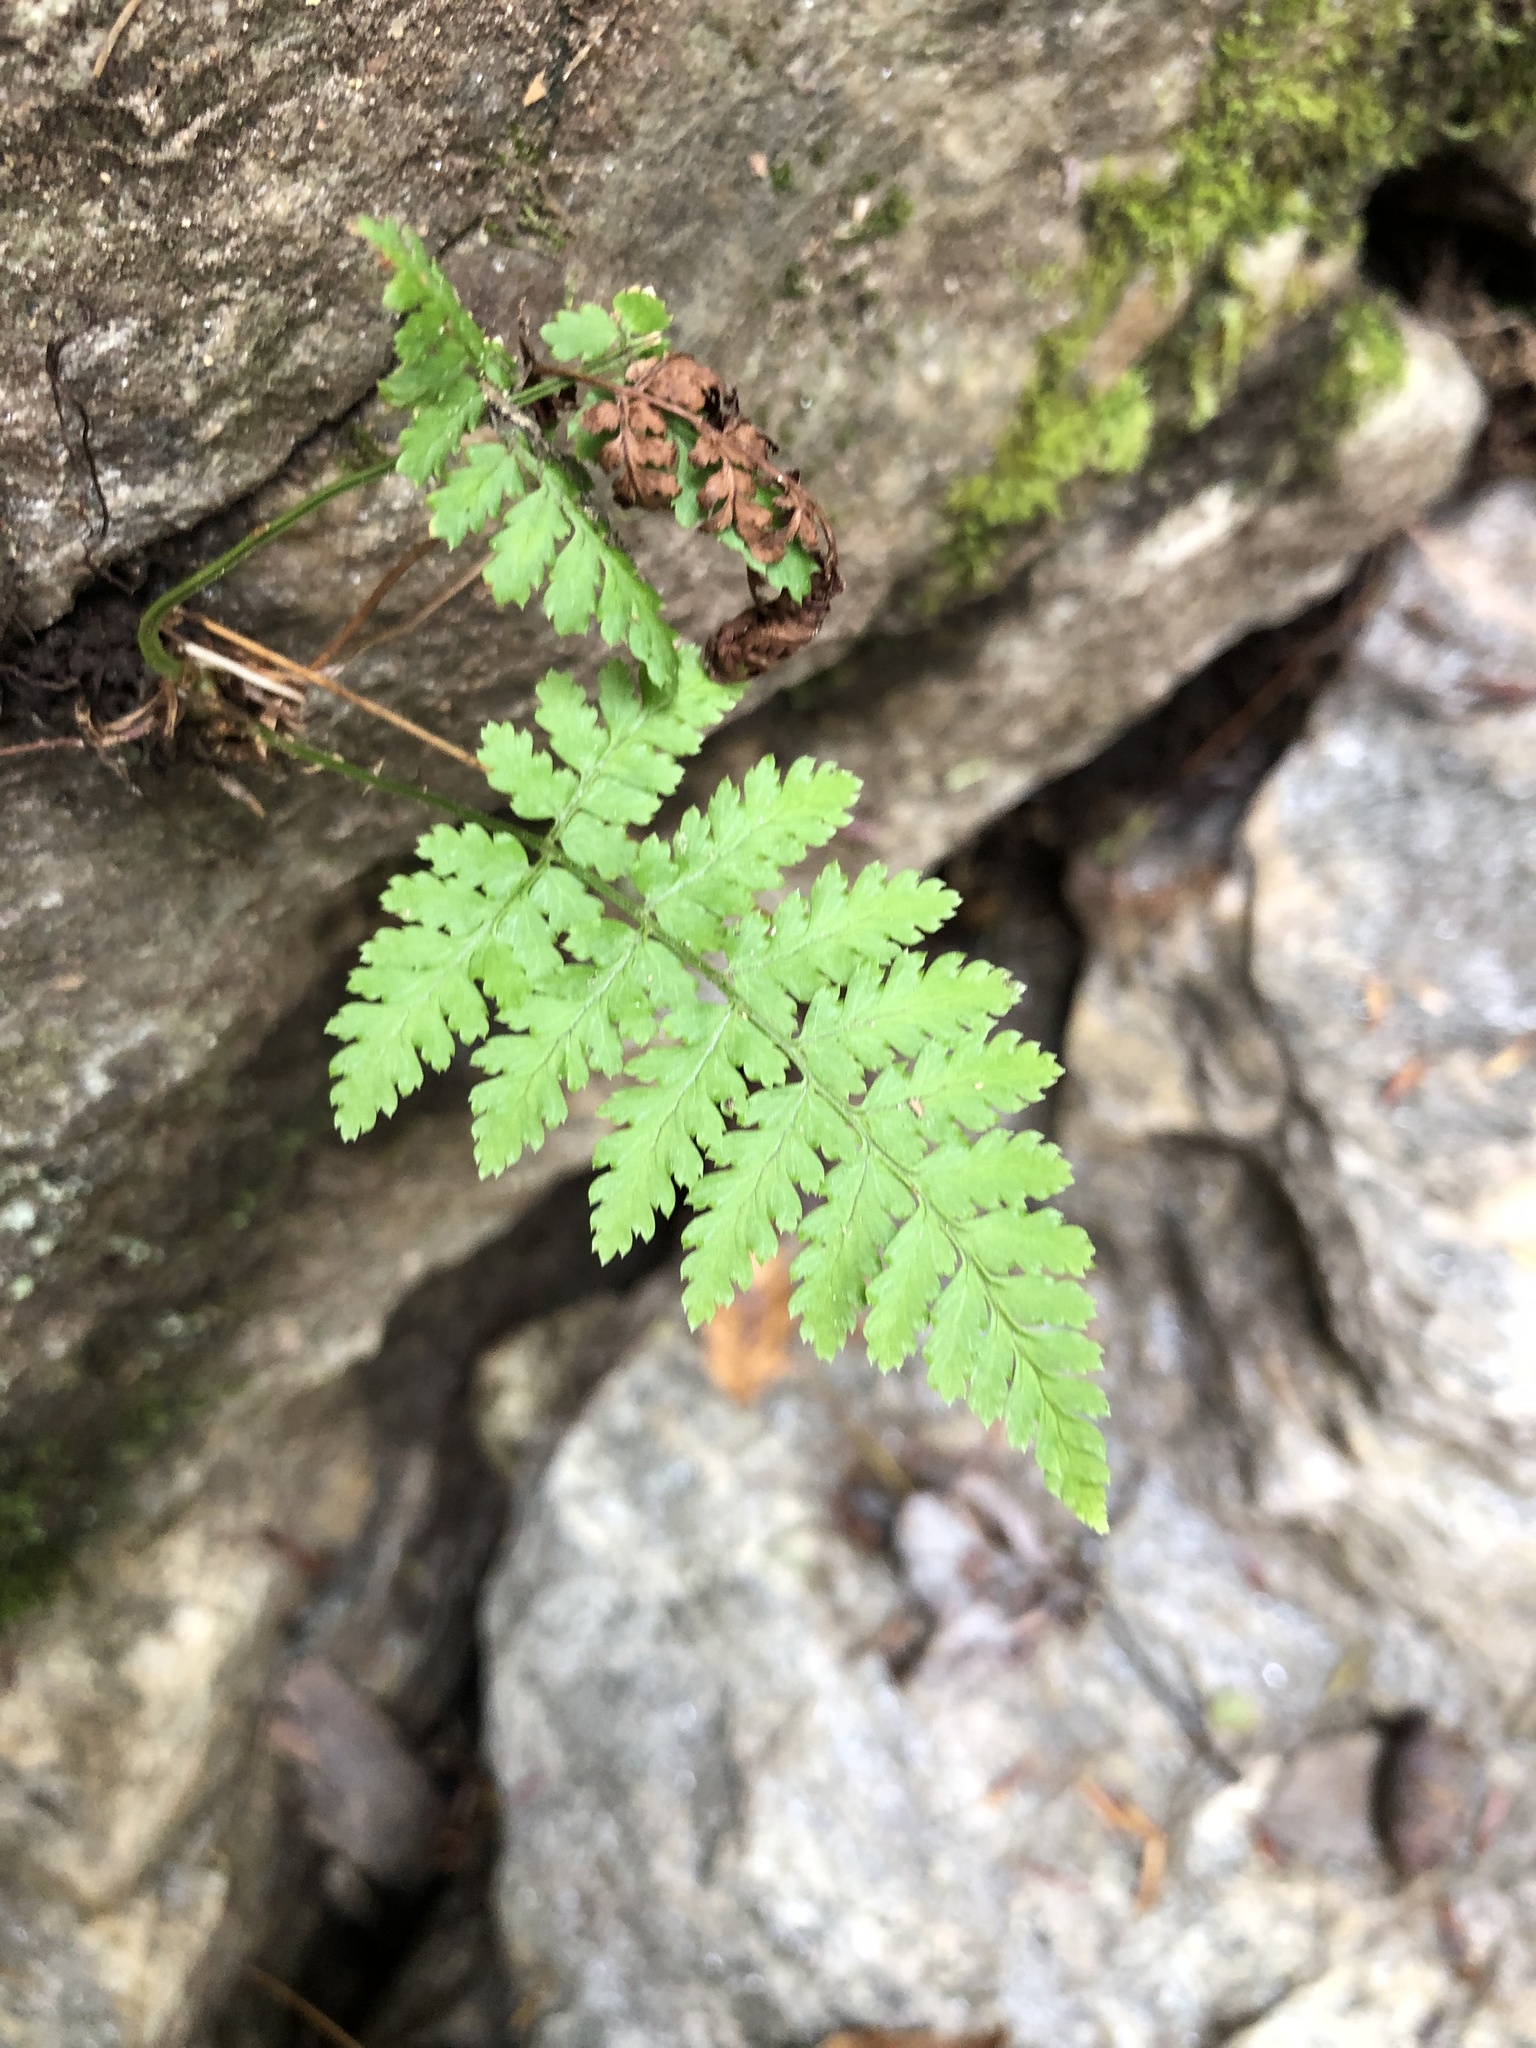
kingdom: Plantae
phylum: Tracheophyta
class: Polypodiopsida
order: Polypodiales
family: Dryopteridaceae
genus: Dryopteris
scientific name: Dryopteris intermedia
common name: Evergreen wood fern
